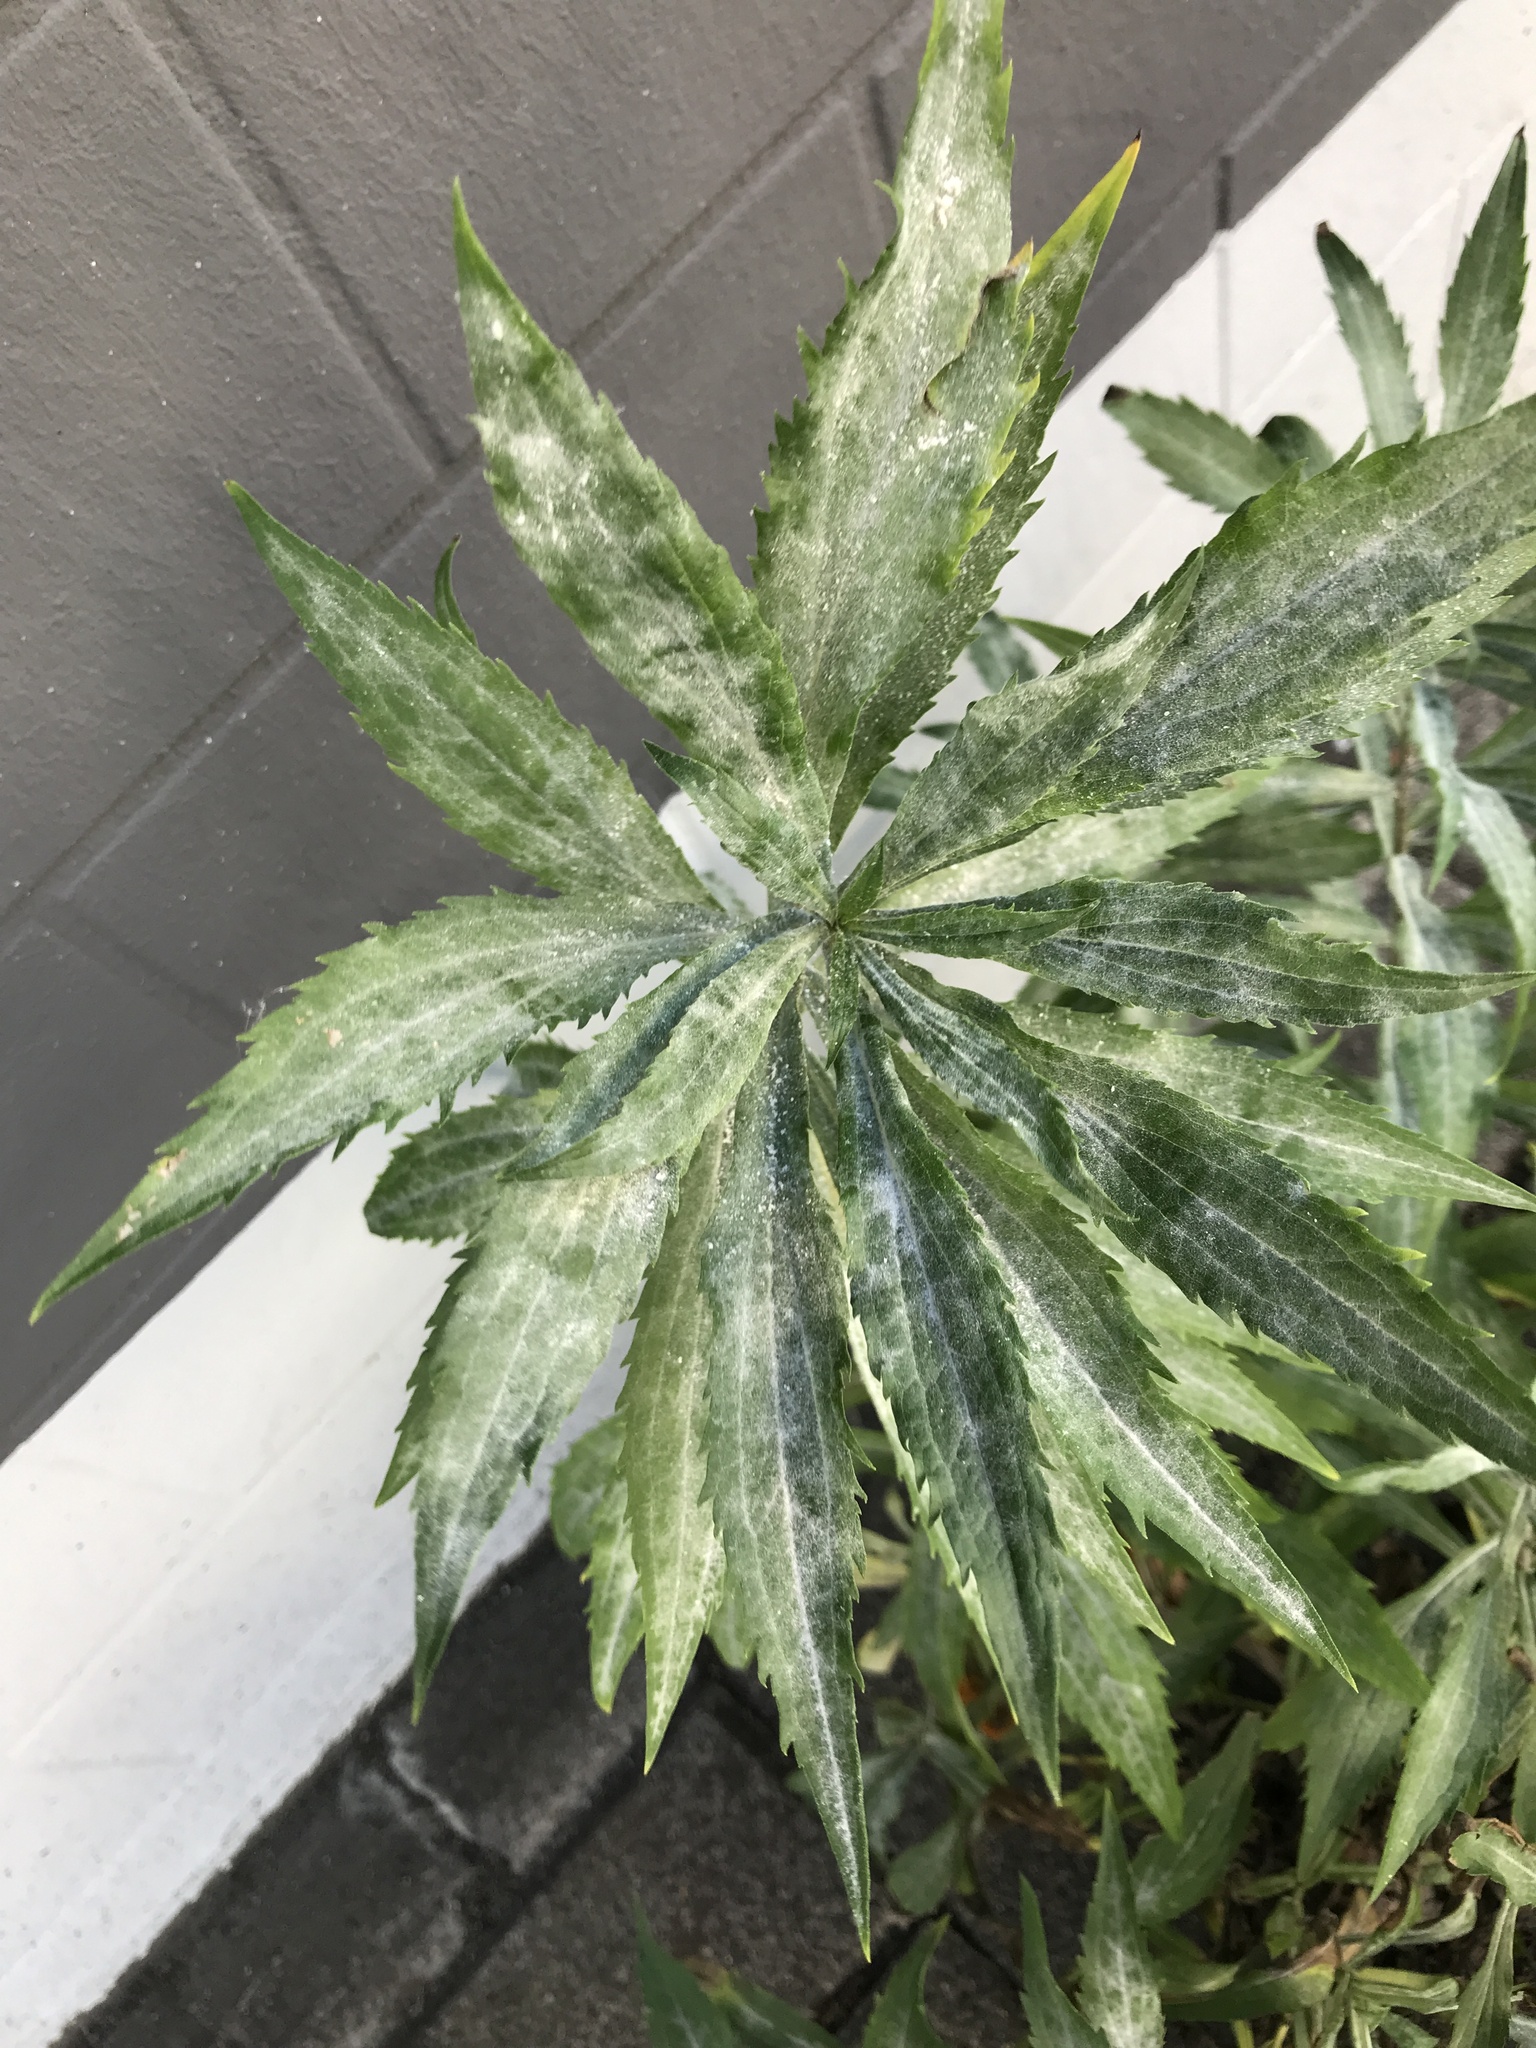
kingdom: Plantae
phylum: Tracheophyta
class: Magnoliopsida
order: Asterales
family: Asteraceae
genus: Solidago
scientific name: Solidago canadensis
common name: Canada goldenrod
